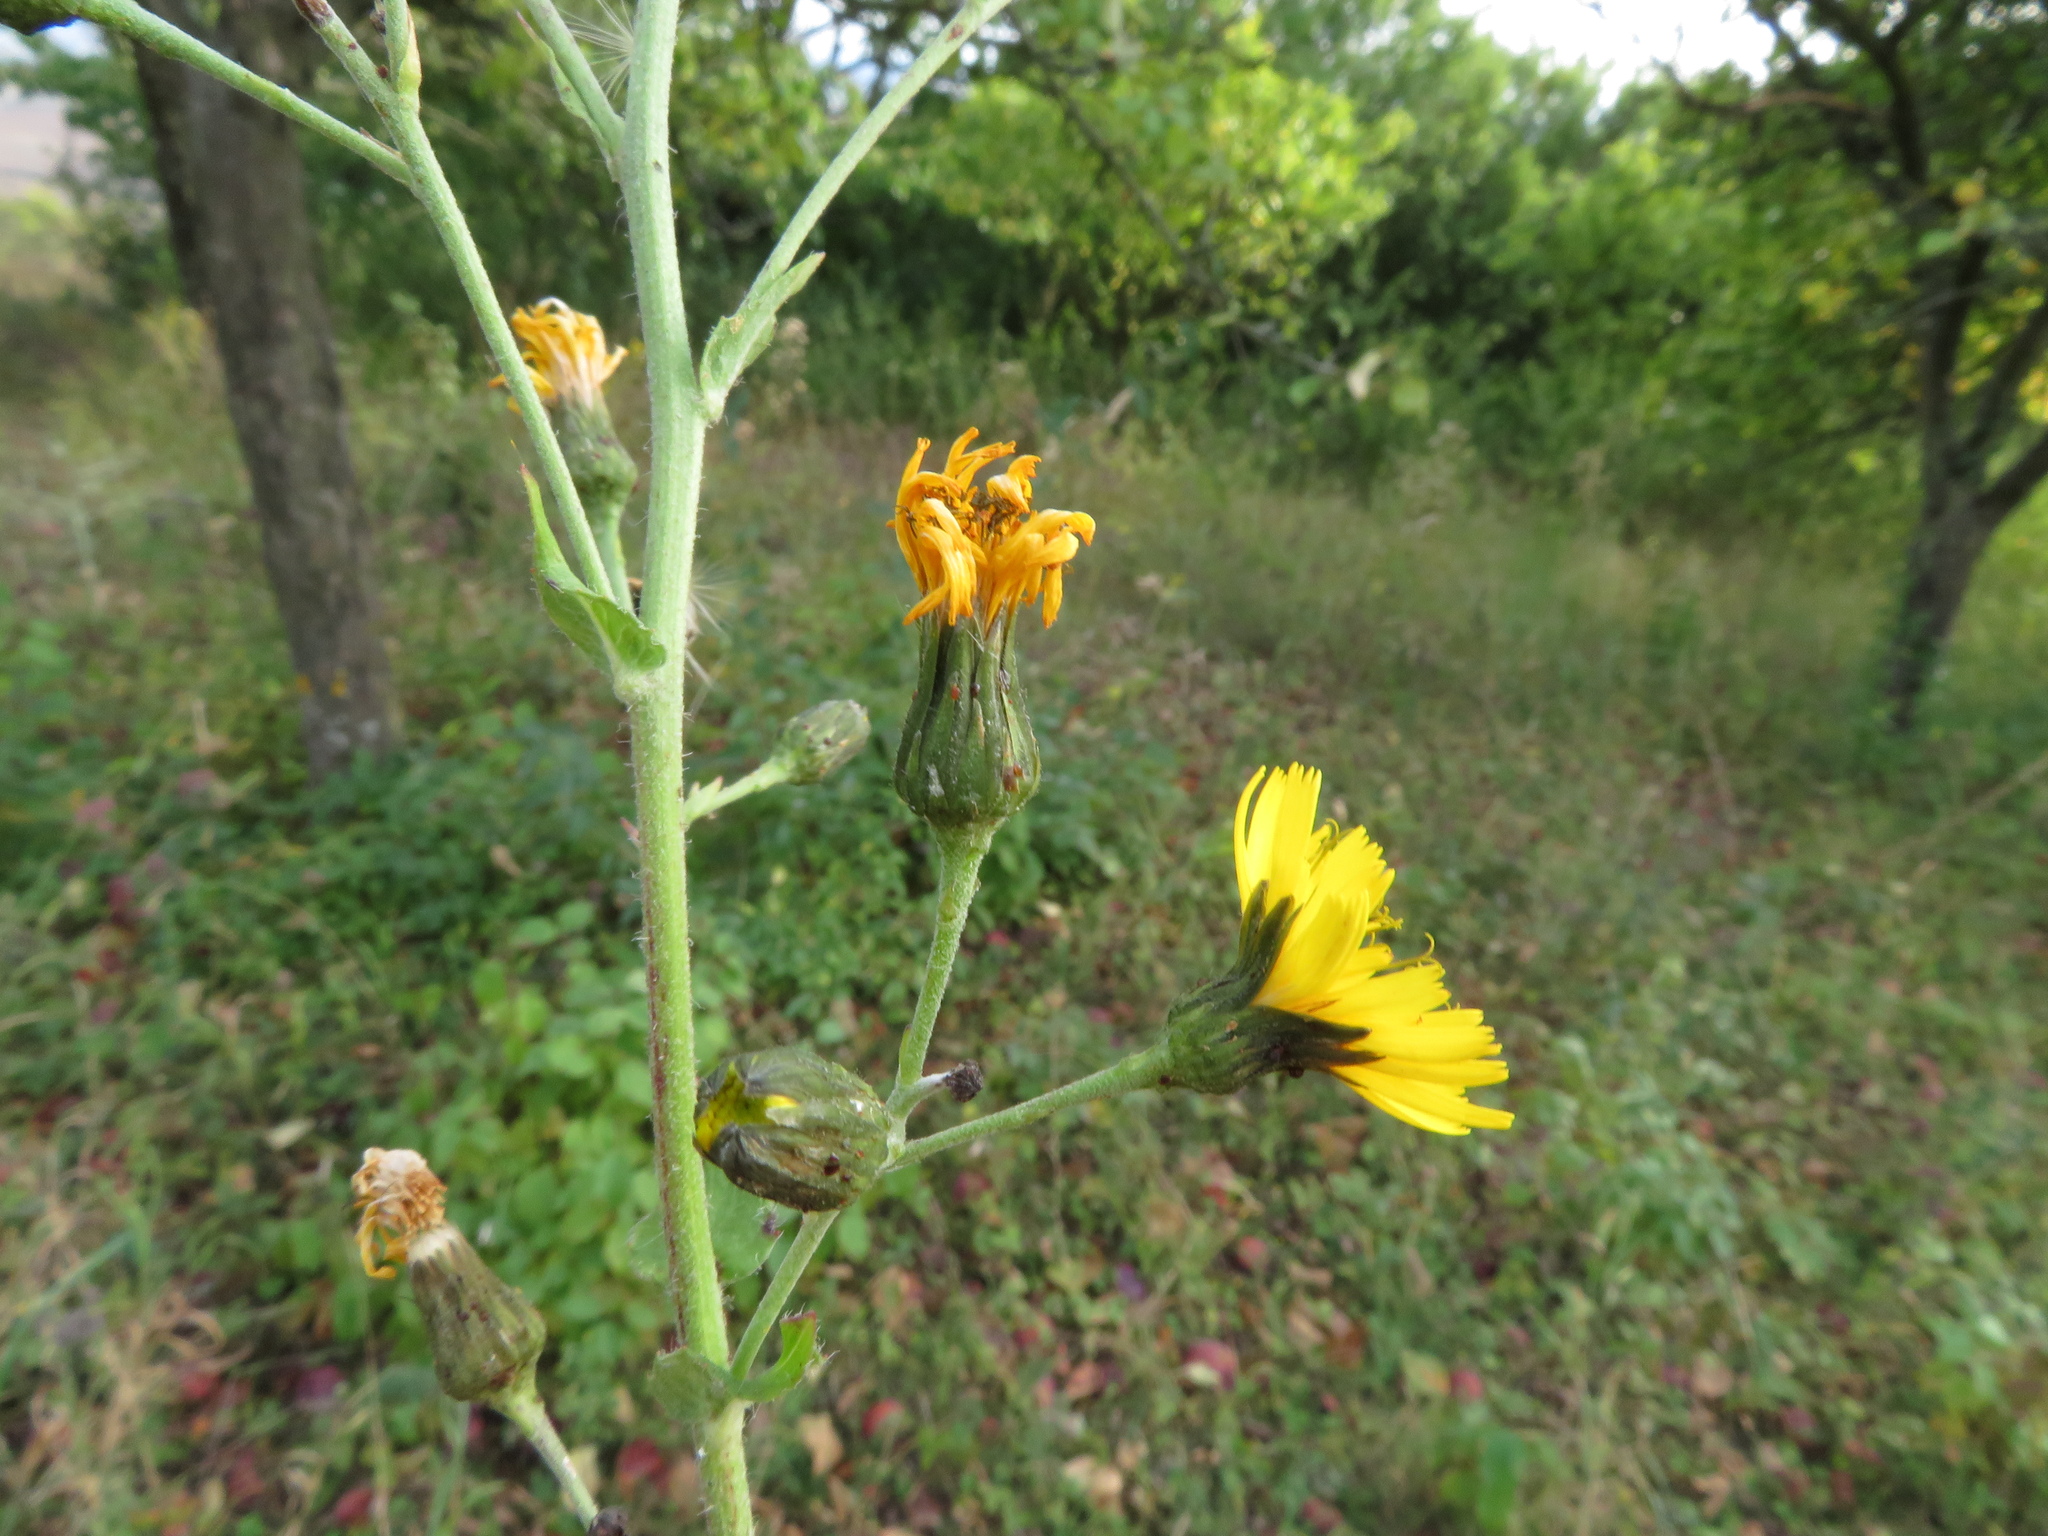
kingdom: Plantae
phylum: Tracheophyta
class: Magnoliopsida
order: Asterales
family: Asteraceae
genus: Hieracium
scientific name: Hieracium sabaudum
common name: New england hawkweed
